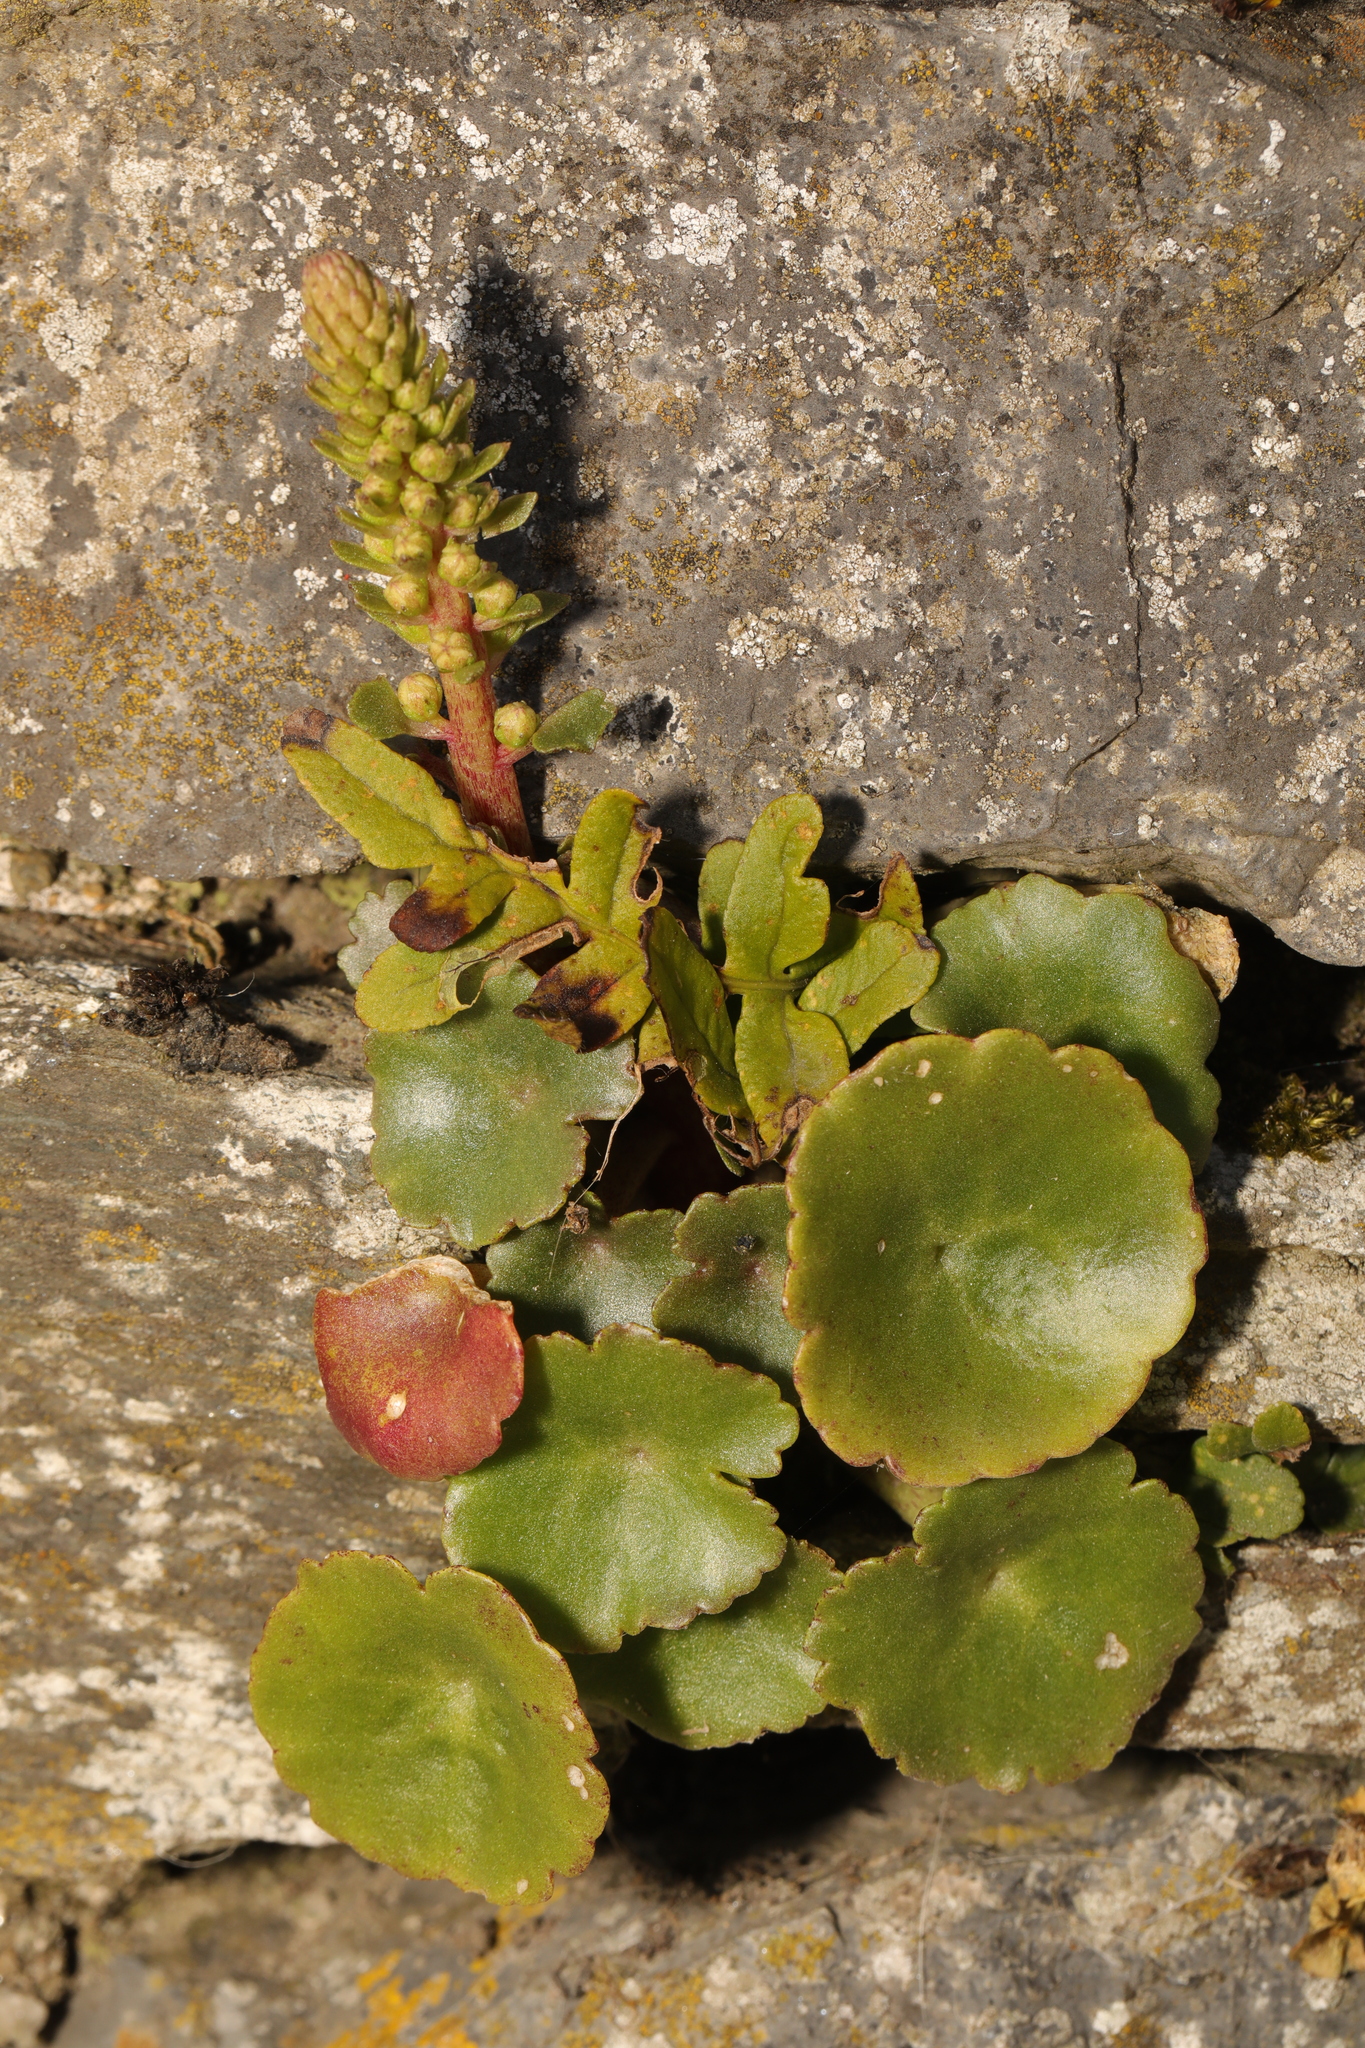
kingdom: Plantae
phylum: Tracheophyta
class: Magnoliopsida
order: Saxifragales
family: Crassulaceae
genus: Umbilicus
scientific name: Umbilicus rupestris
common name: Navelwort
